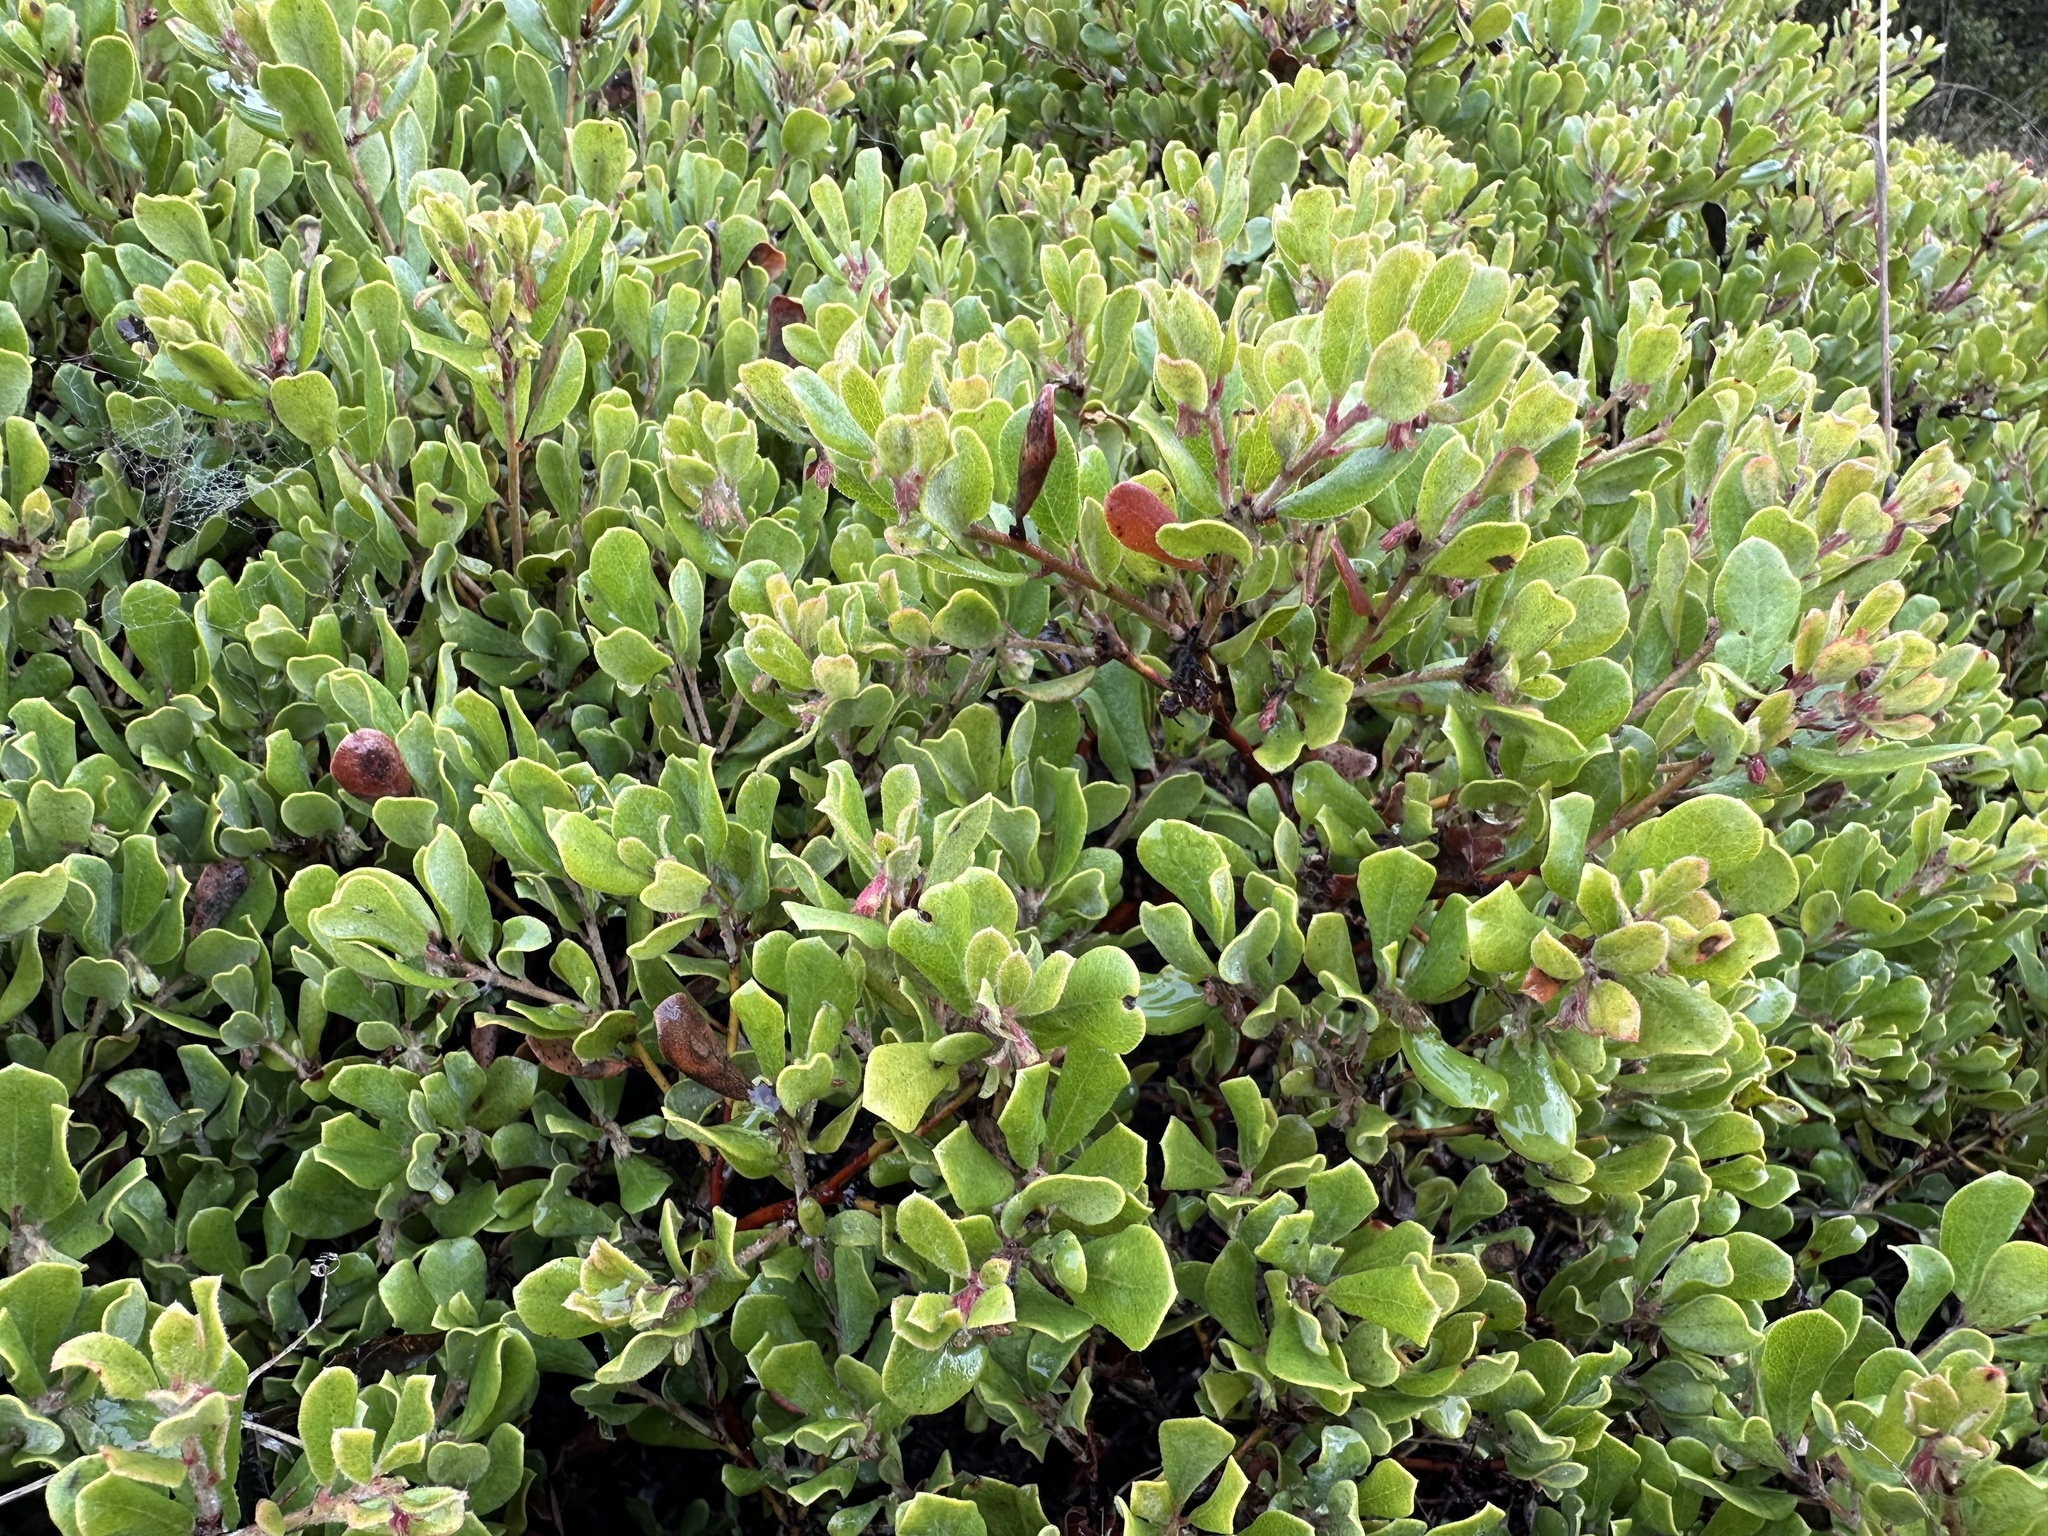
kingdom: Plantae
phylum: Tracheophyta
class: Magnoliopsida
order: Ericales
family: Ericaceae
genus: Arctostaphylos
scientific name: Arctostaphylos pumila
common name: Sandmat manzanita
